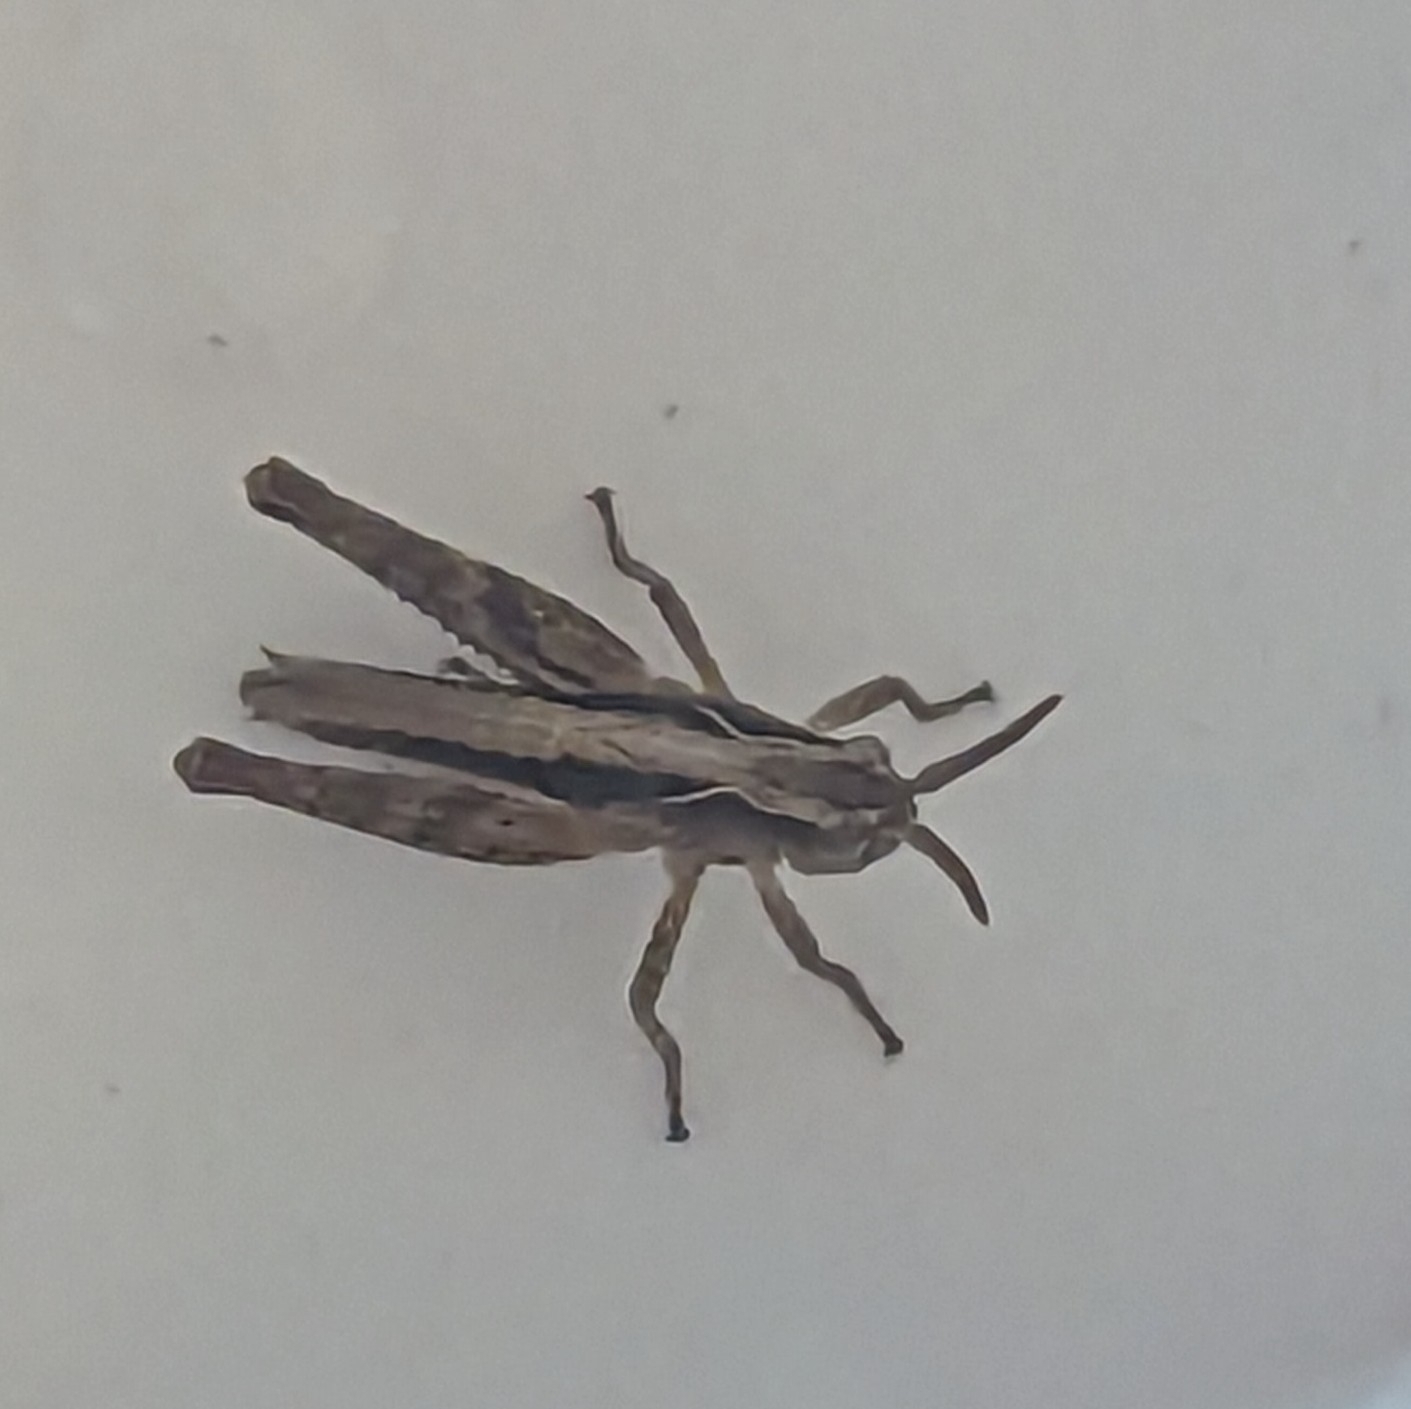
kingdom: Animalia
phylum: Arthropoda
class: Insecta
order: Orthoptera
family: Acrididae
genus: Chorthippus
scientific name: Chorthippus brunneus
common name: Field grasshopper
